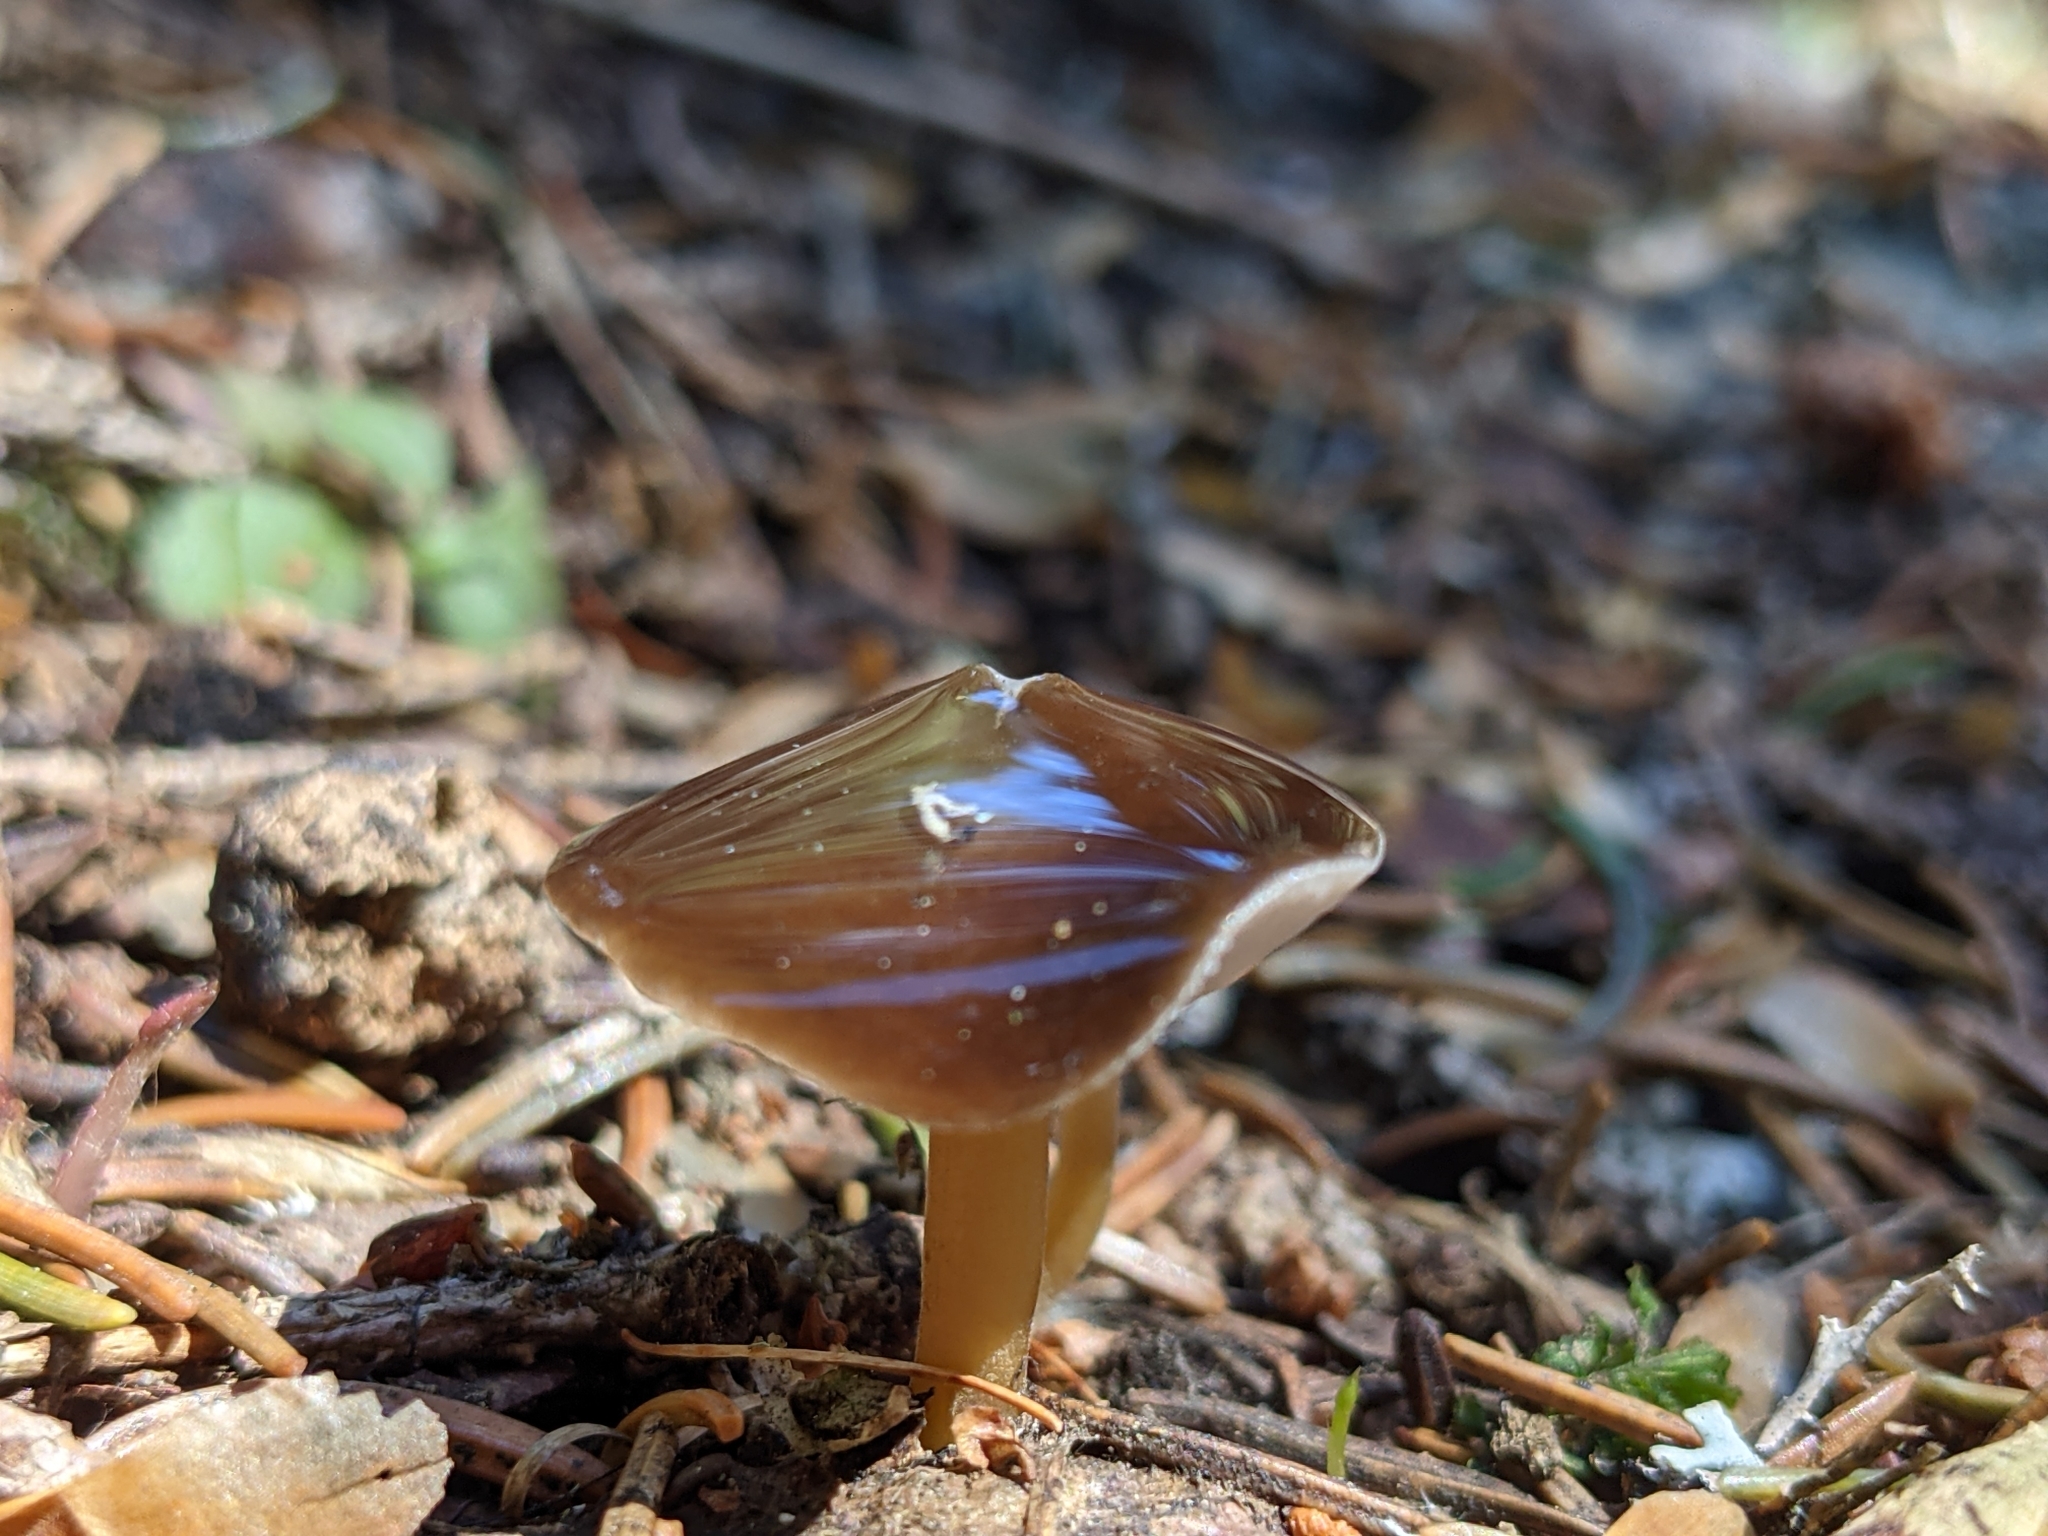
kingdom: Fungi
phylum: Basidiomycota
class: Agaricomycetes
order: Agaricales
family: Physalacriaceae
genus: Strobilurus
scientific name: Strobilurus esculentus
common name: Sprucecone cap
